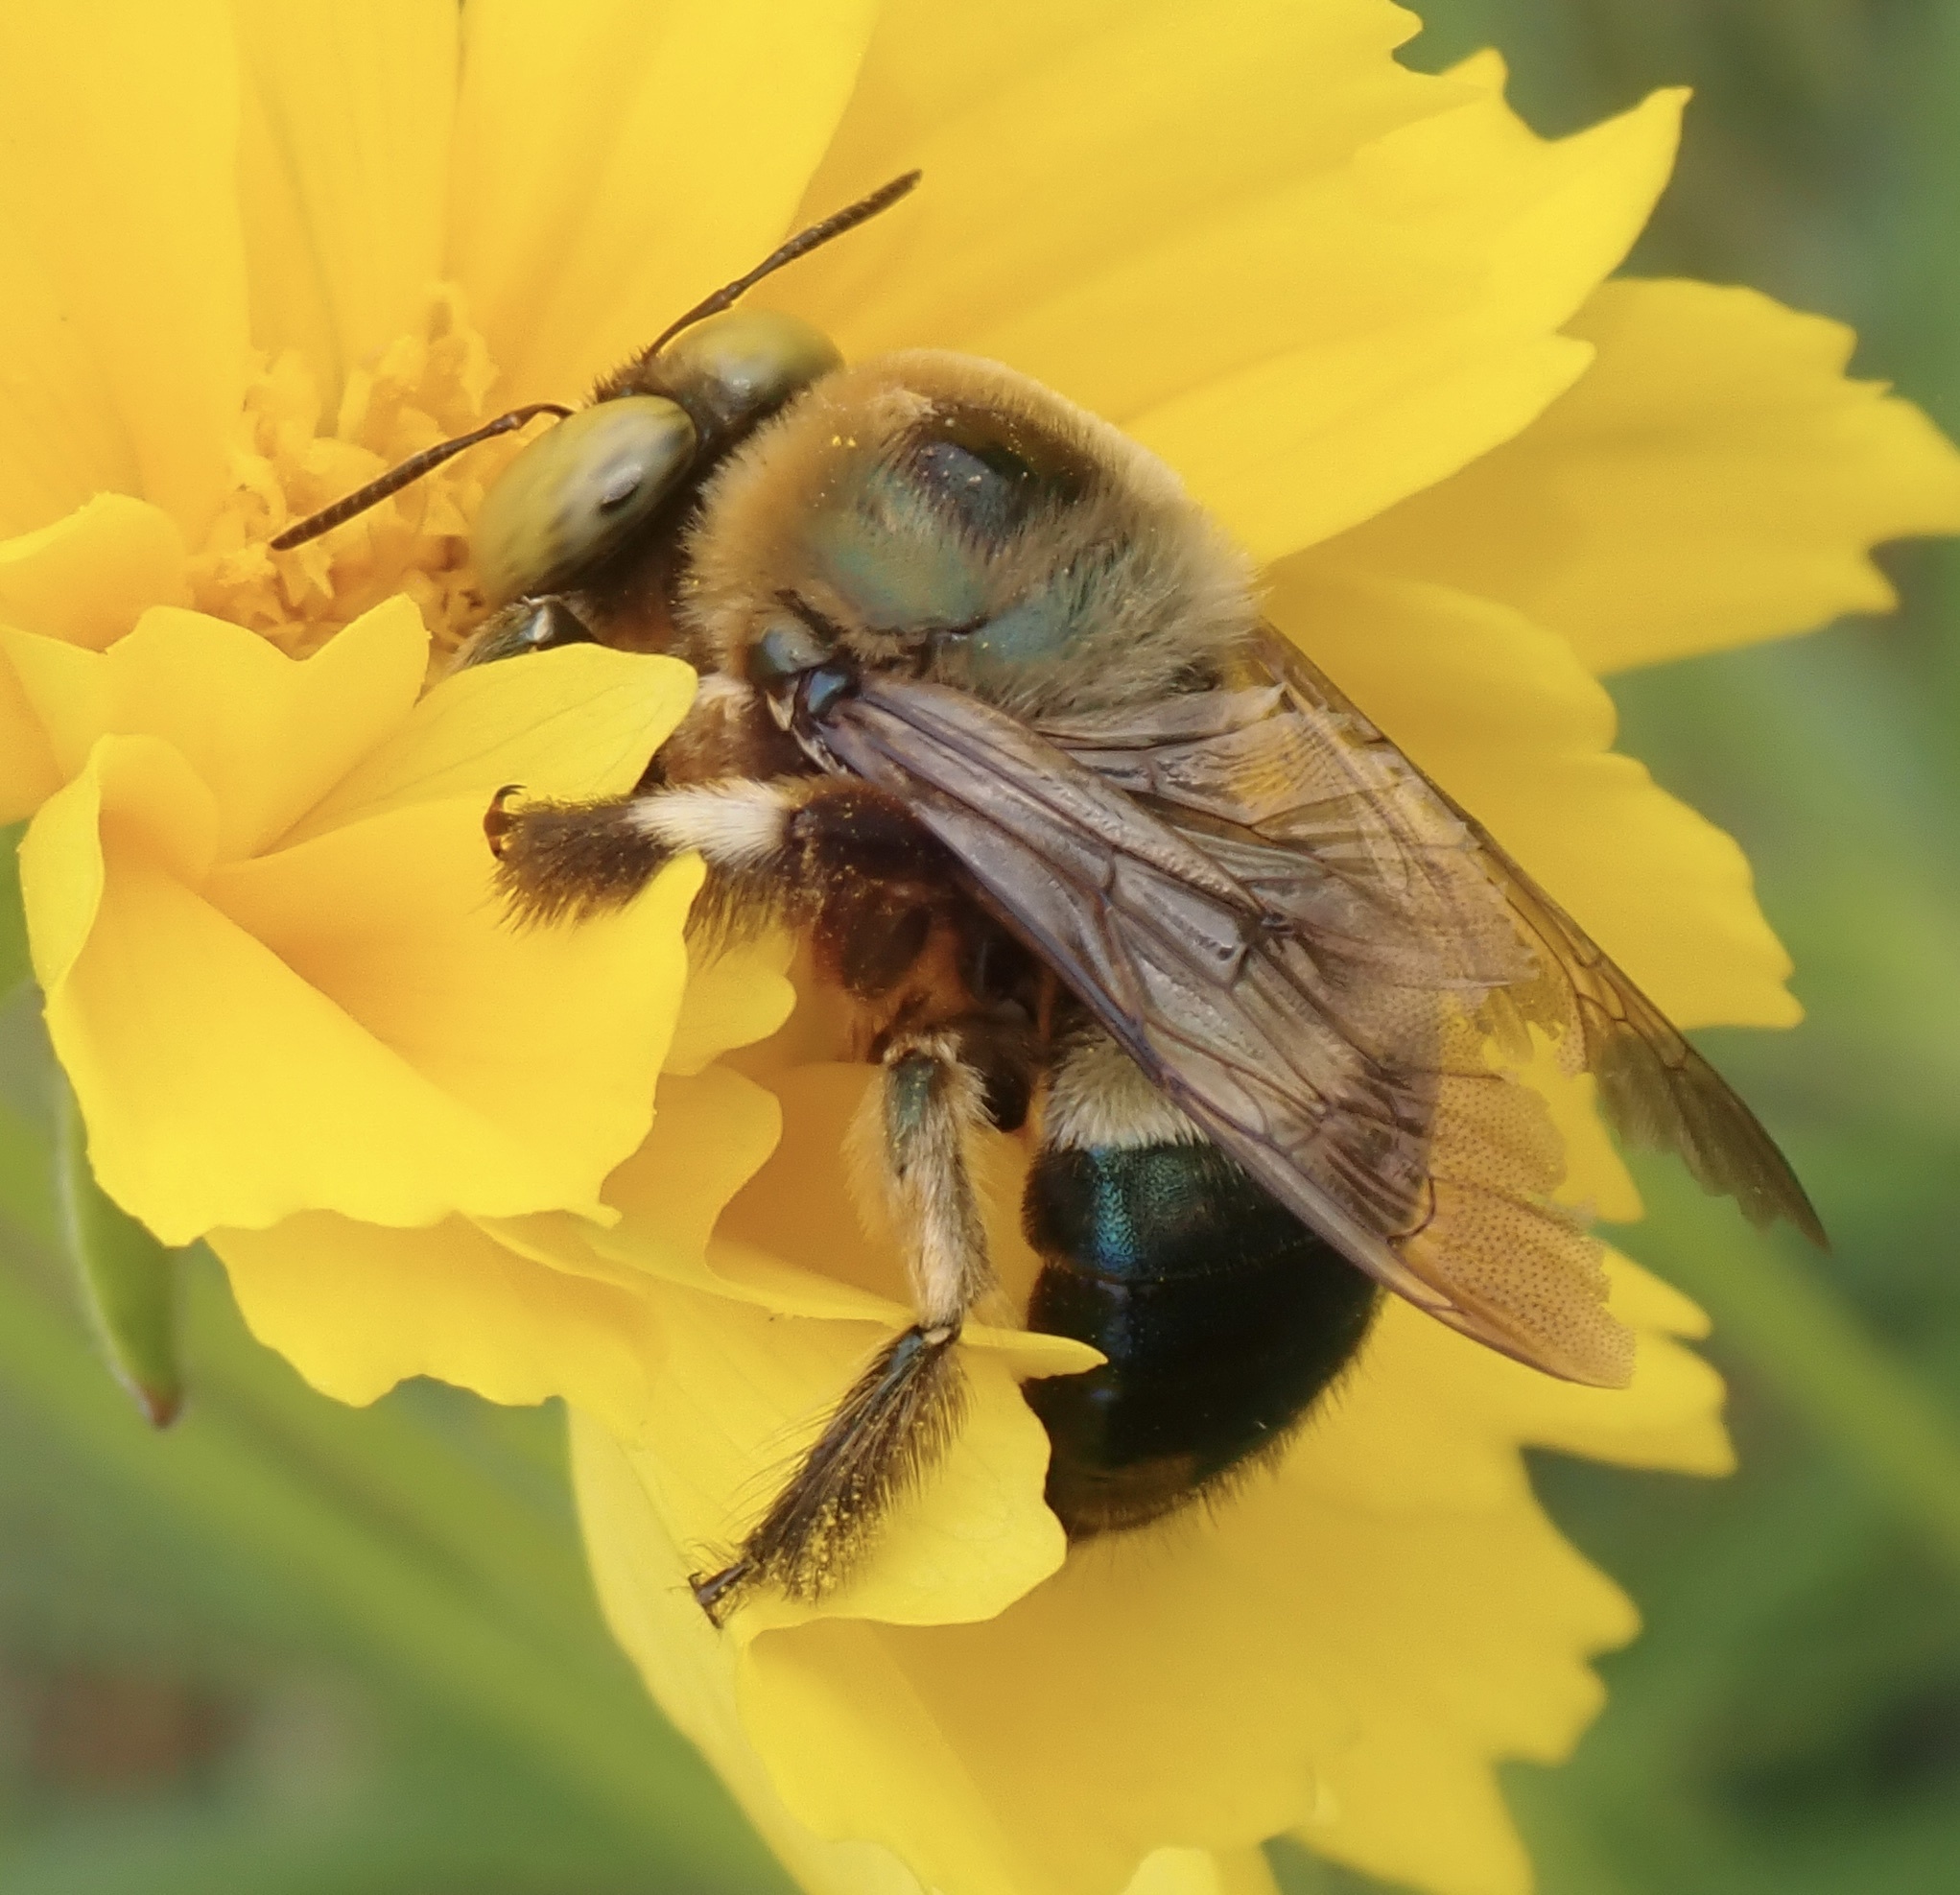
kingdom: Animalia
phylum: Arthropoda
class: Insecta
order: Hymenoptera
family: Apidae
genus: Xylocopa
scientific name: Xylocopa micans
